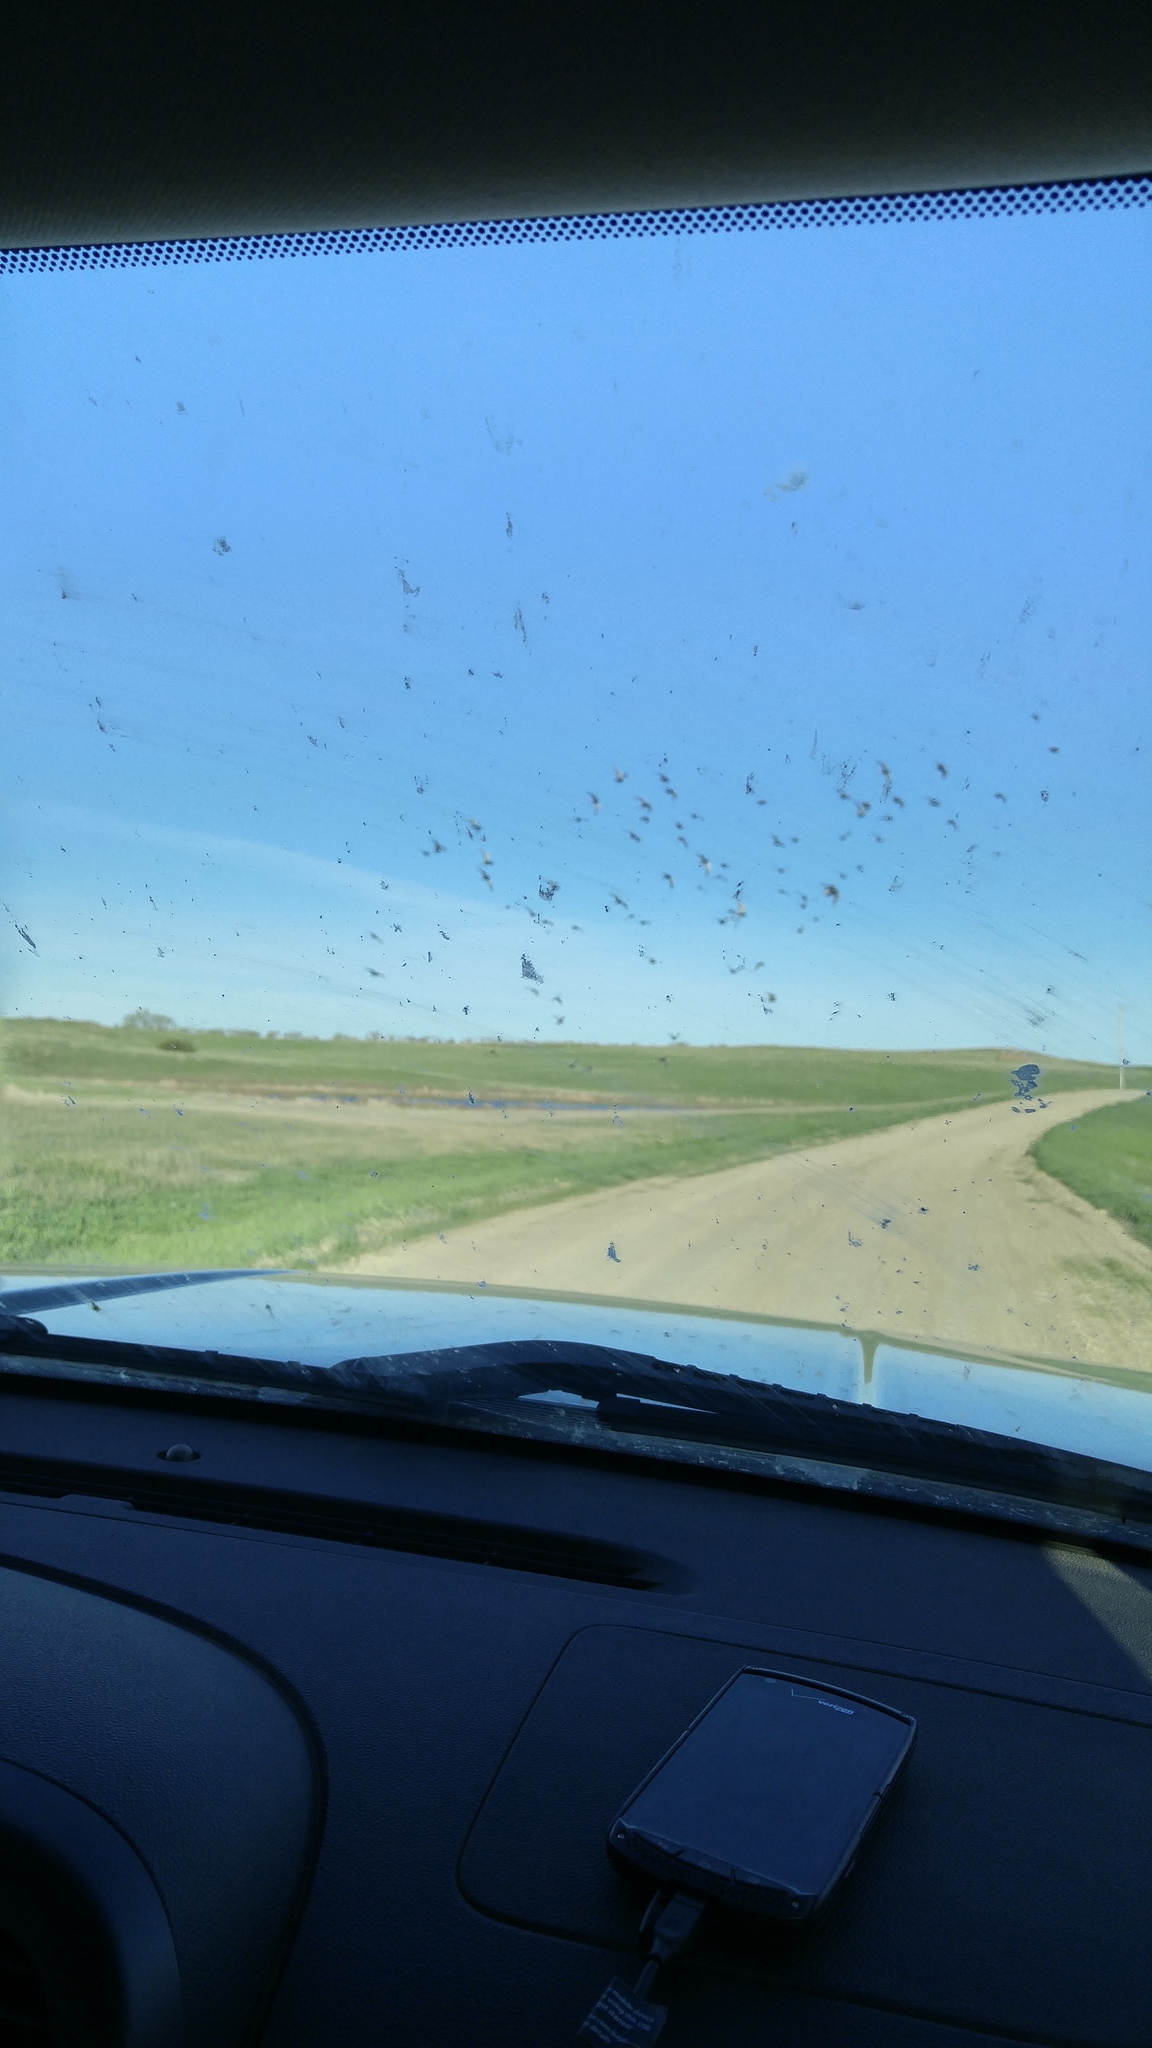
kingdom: Animalia
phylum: Chordata
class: Aves
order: Charadriiformes
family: Laridae
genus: Chlidonias
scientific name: Chlidonias niger
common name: Black tern
